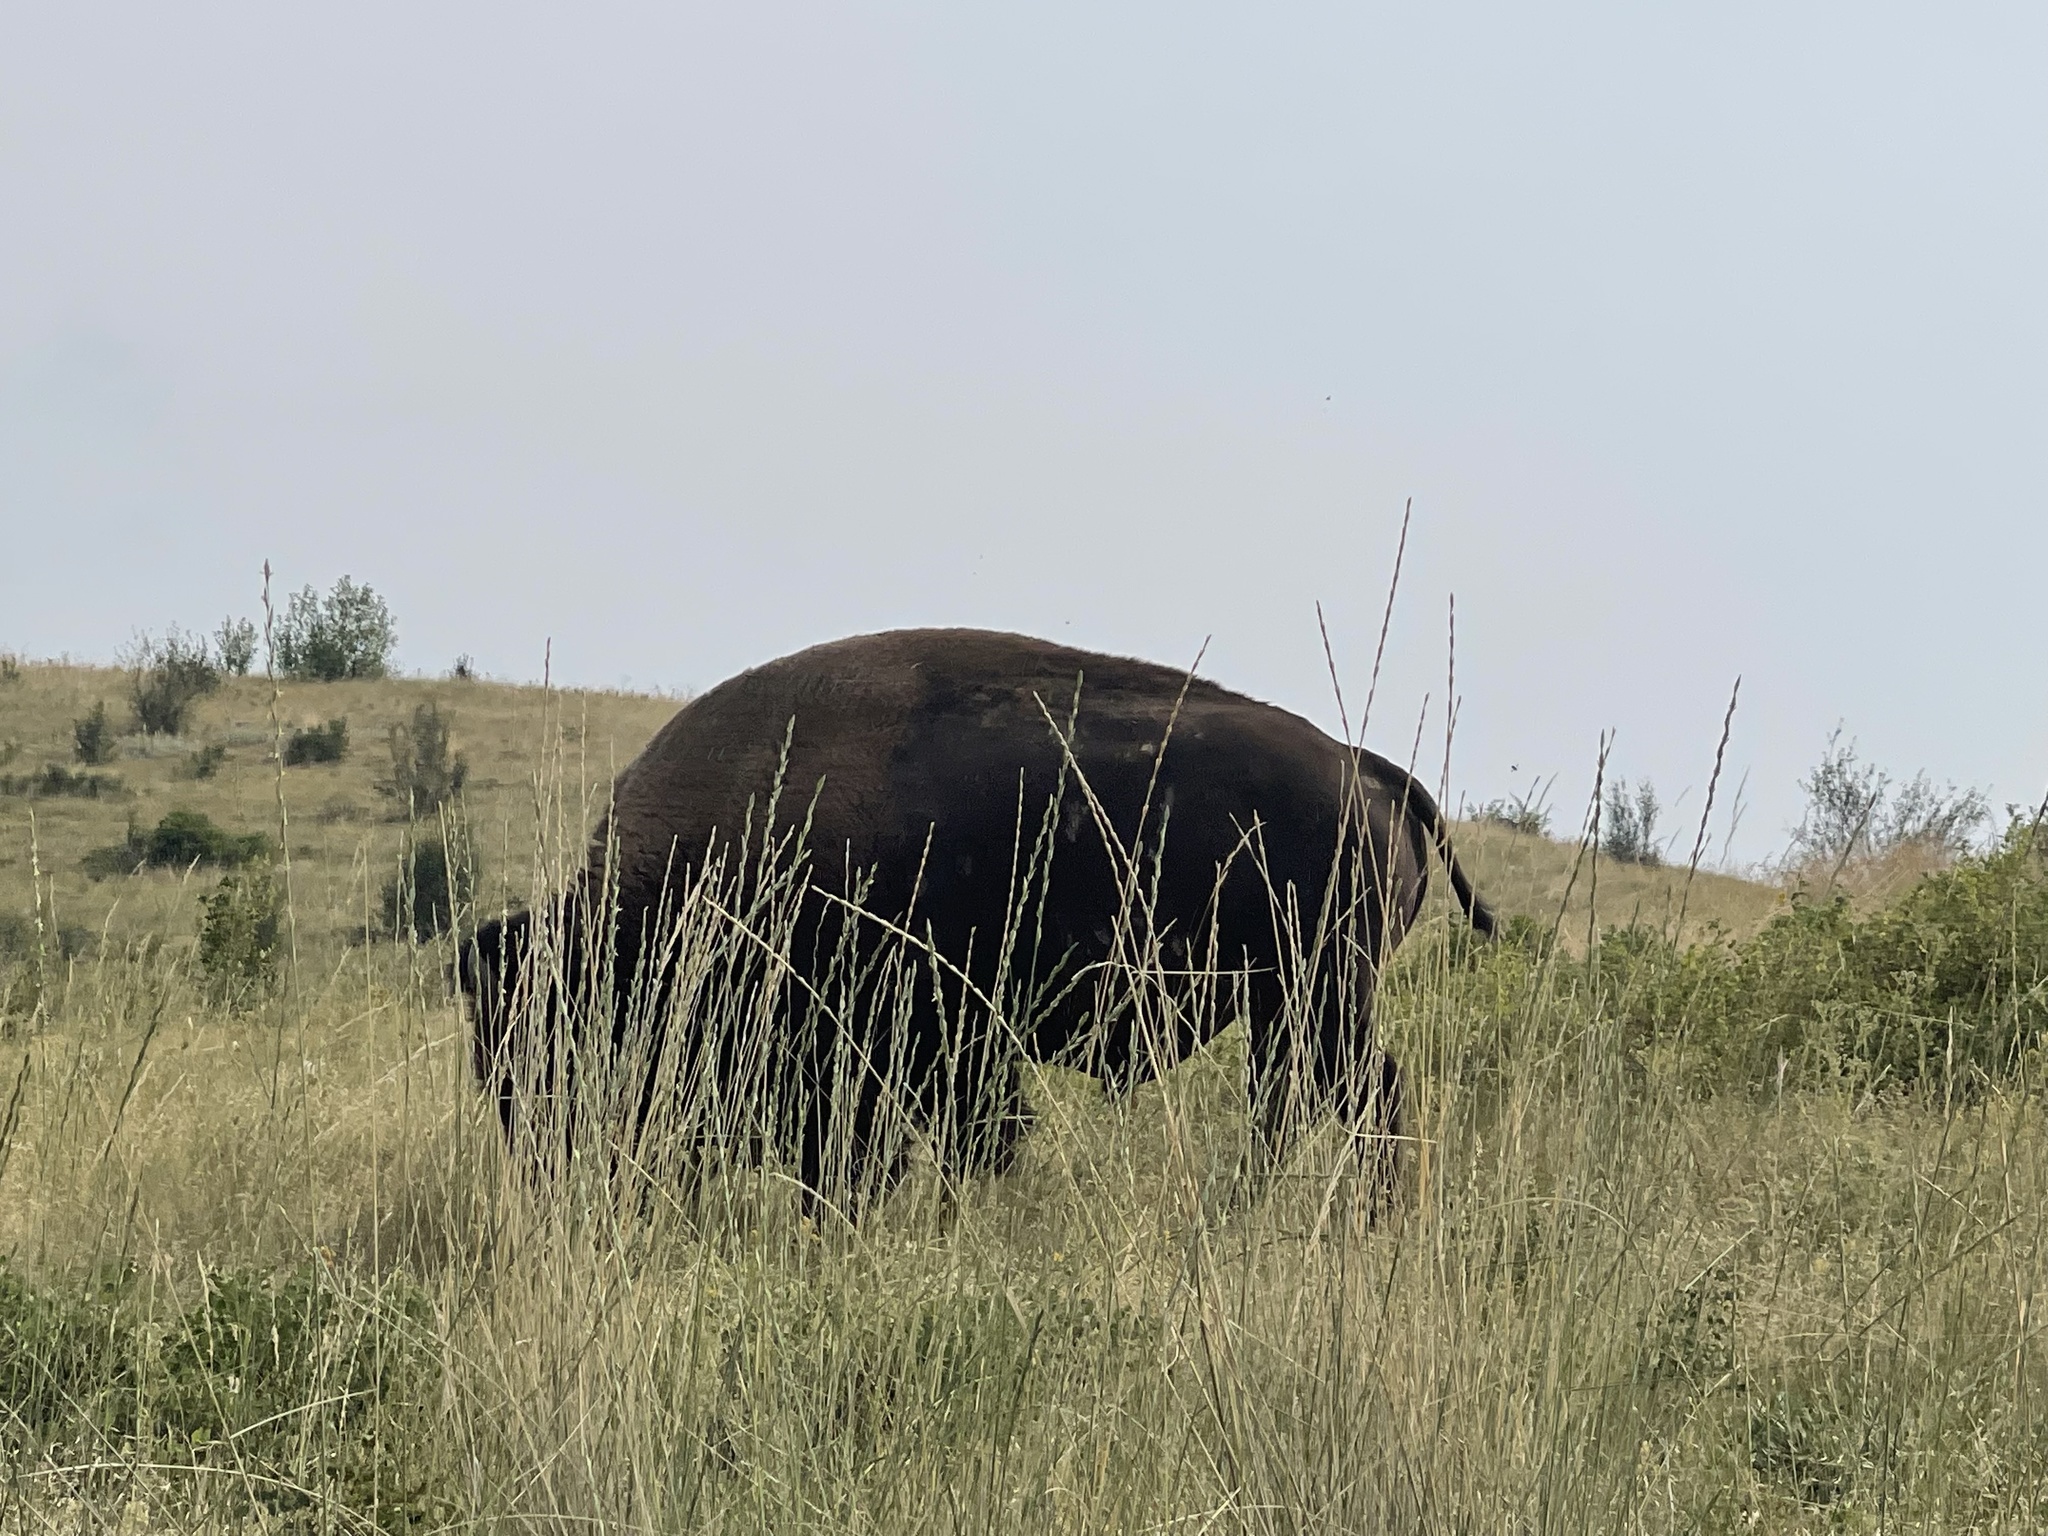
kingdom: Animalia
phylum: Chordata
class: Mammalia
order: Artiodactyla
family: Bovidae
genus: Bison
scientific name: Bison bison
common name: American bison
